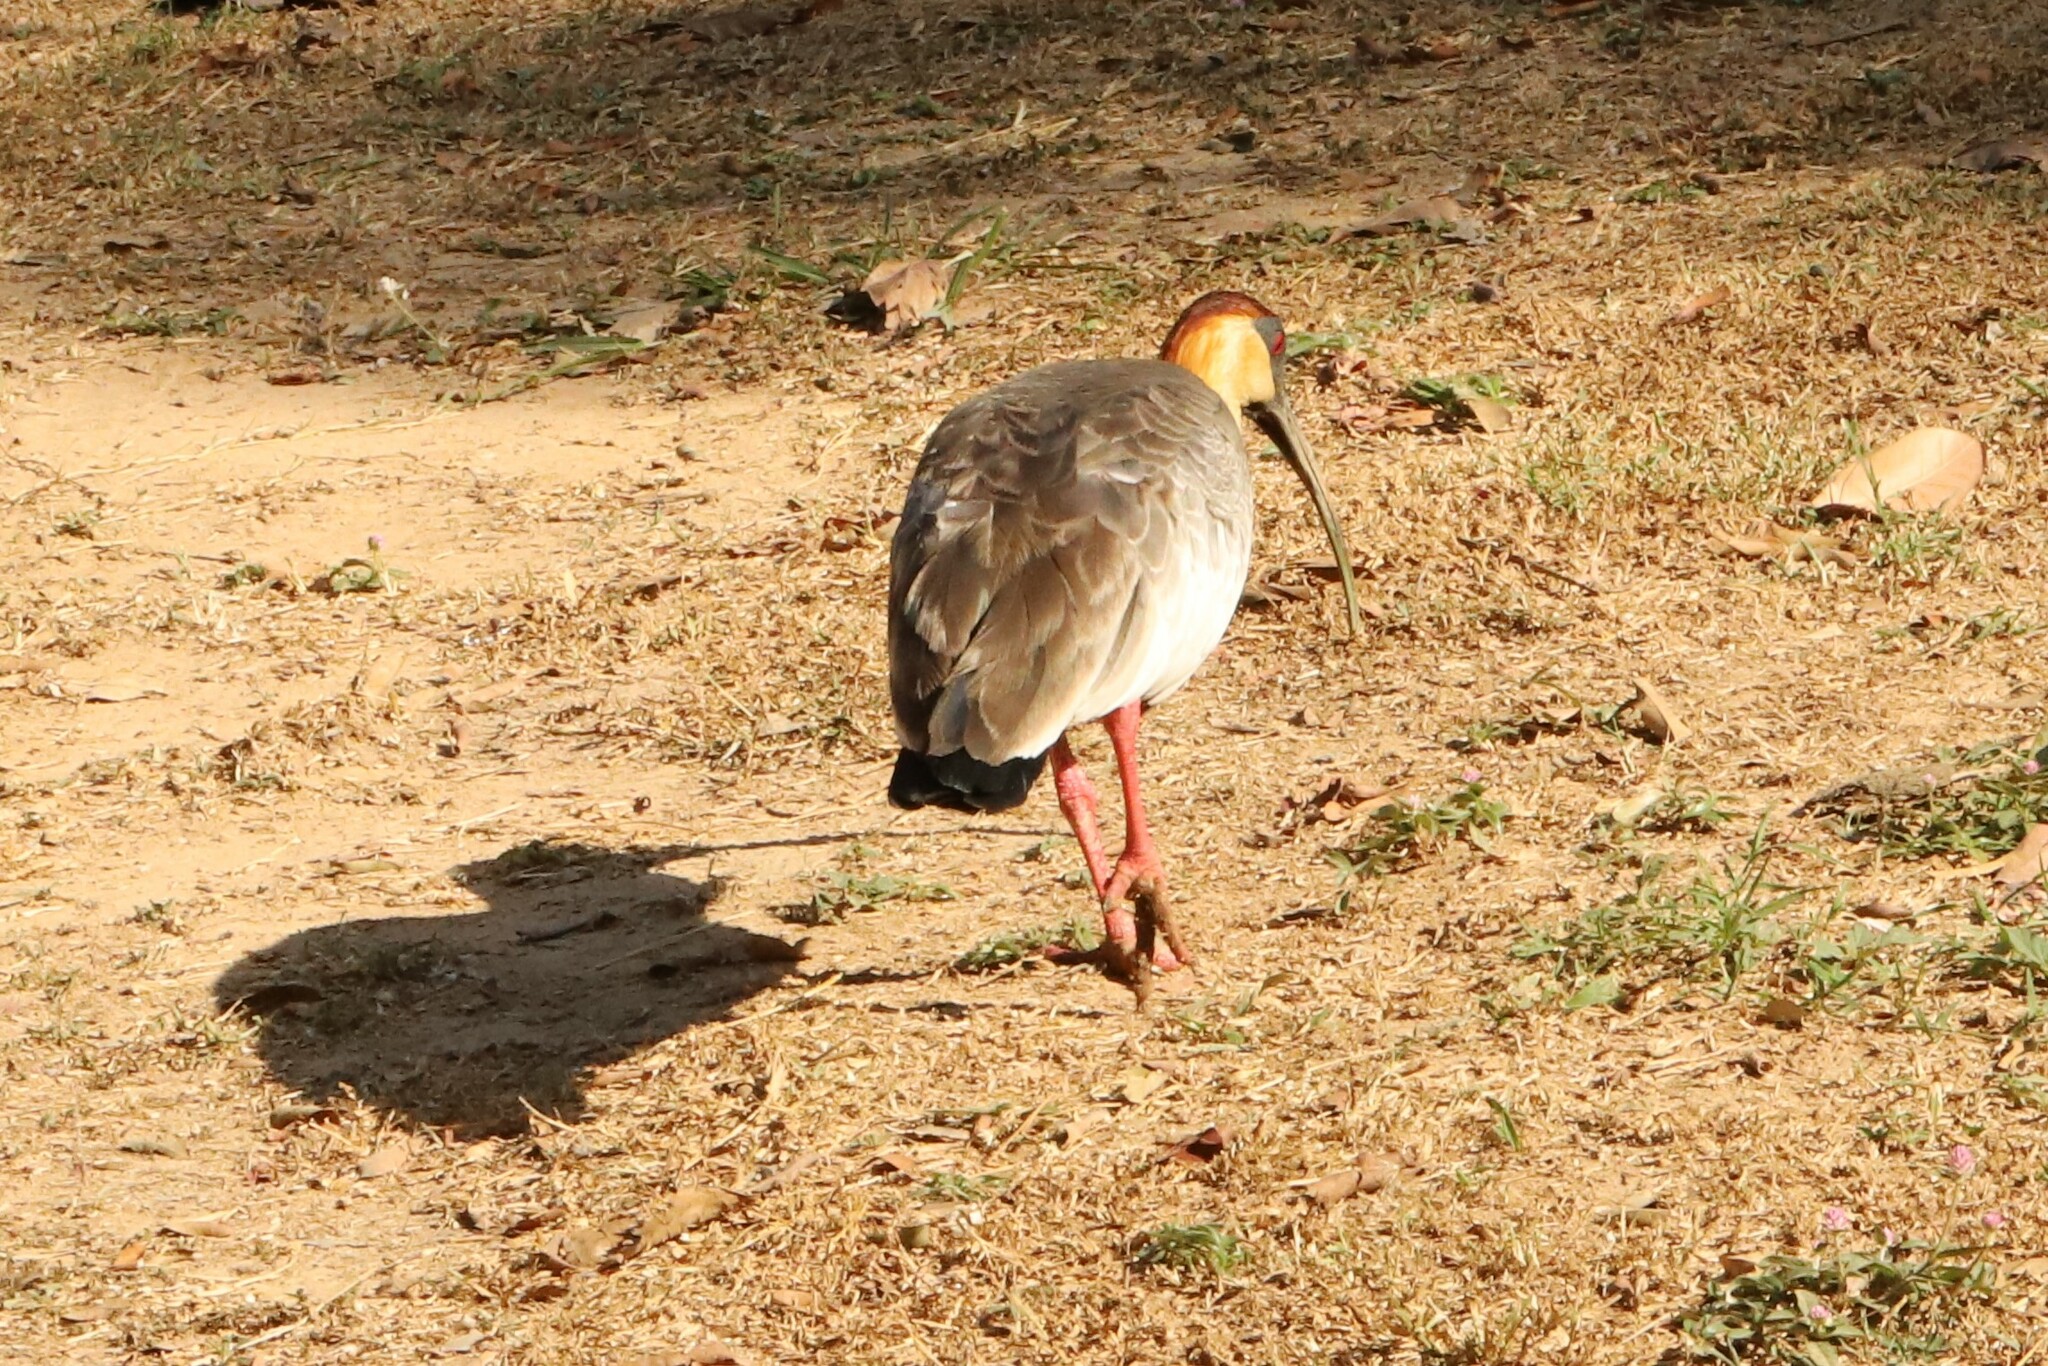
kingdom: Animalia
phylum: Chordata
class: Aves
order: Pelecaniformes
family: Threskiornithidae
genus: Theristicus
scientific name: Theristicus caudatus
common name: Buff-necked ibis
